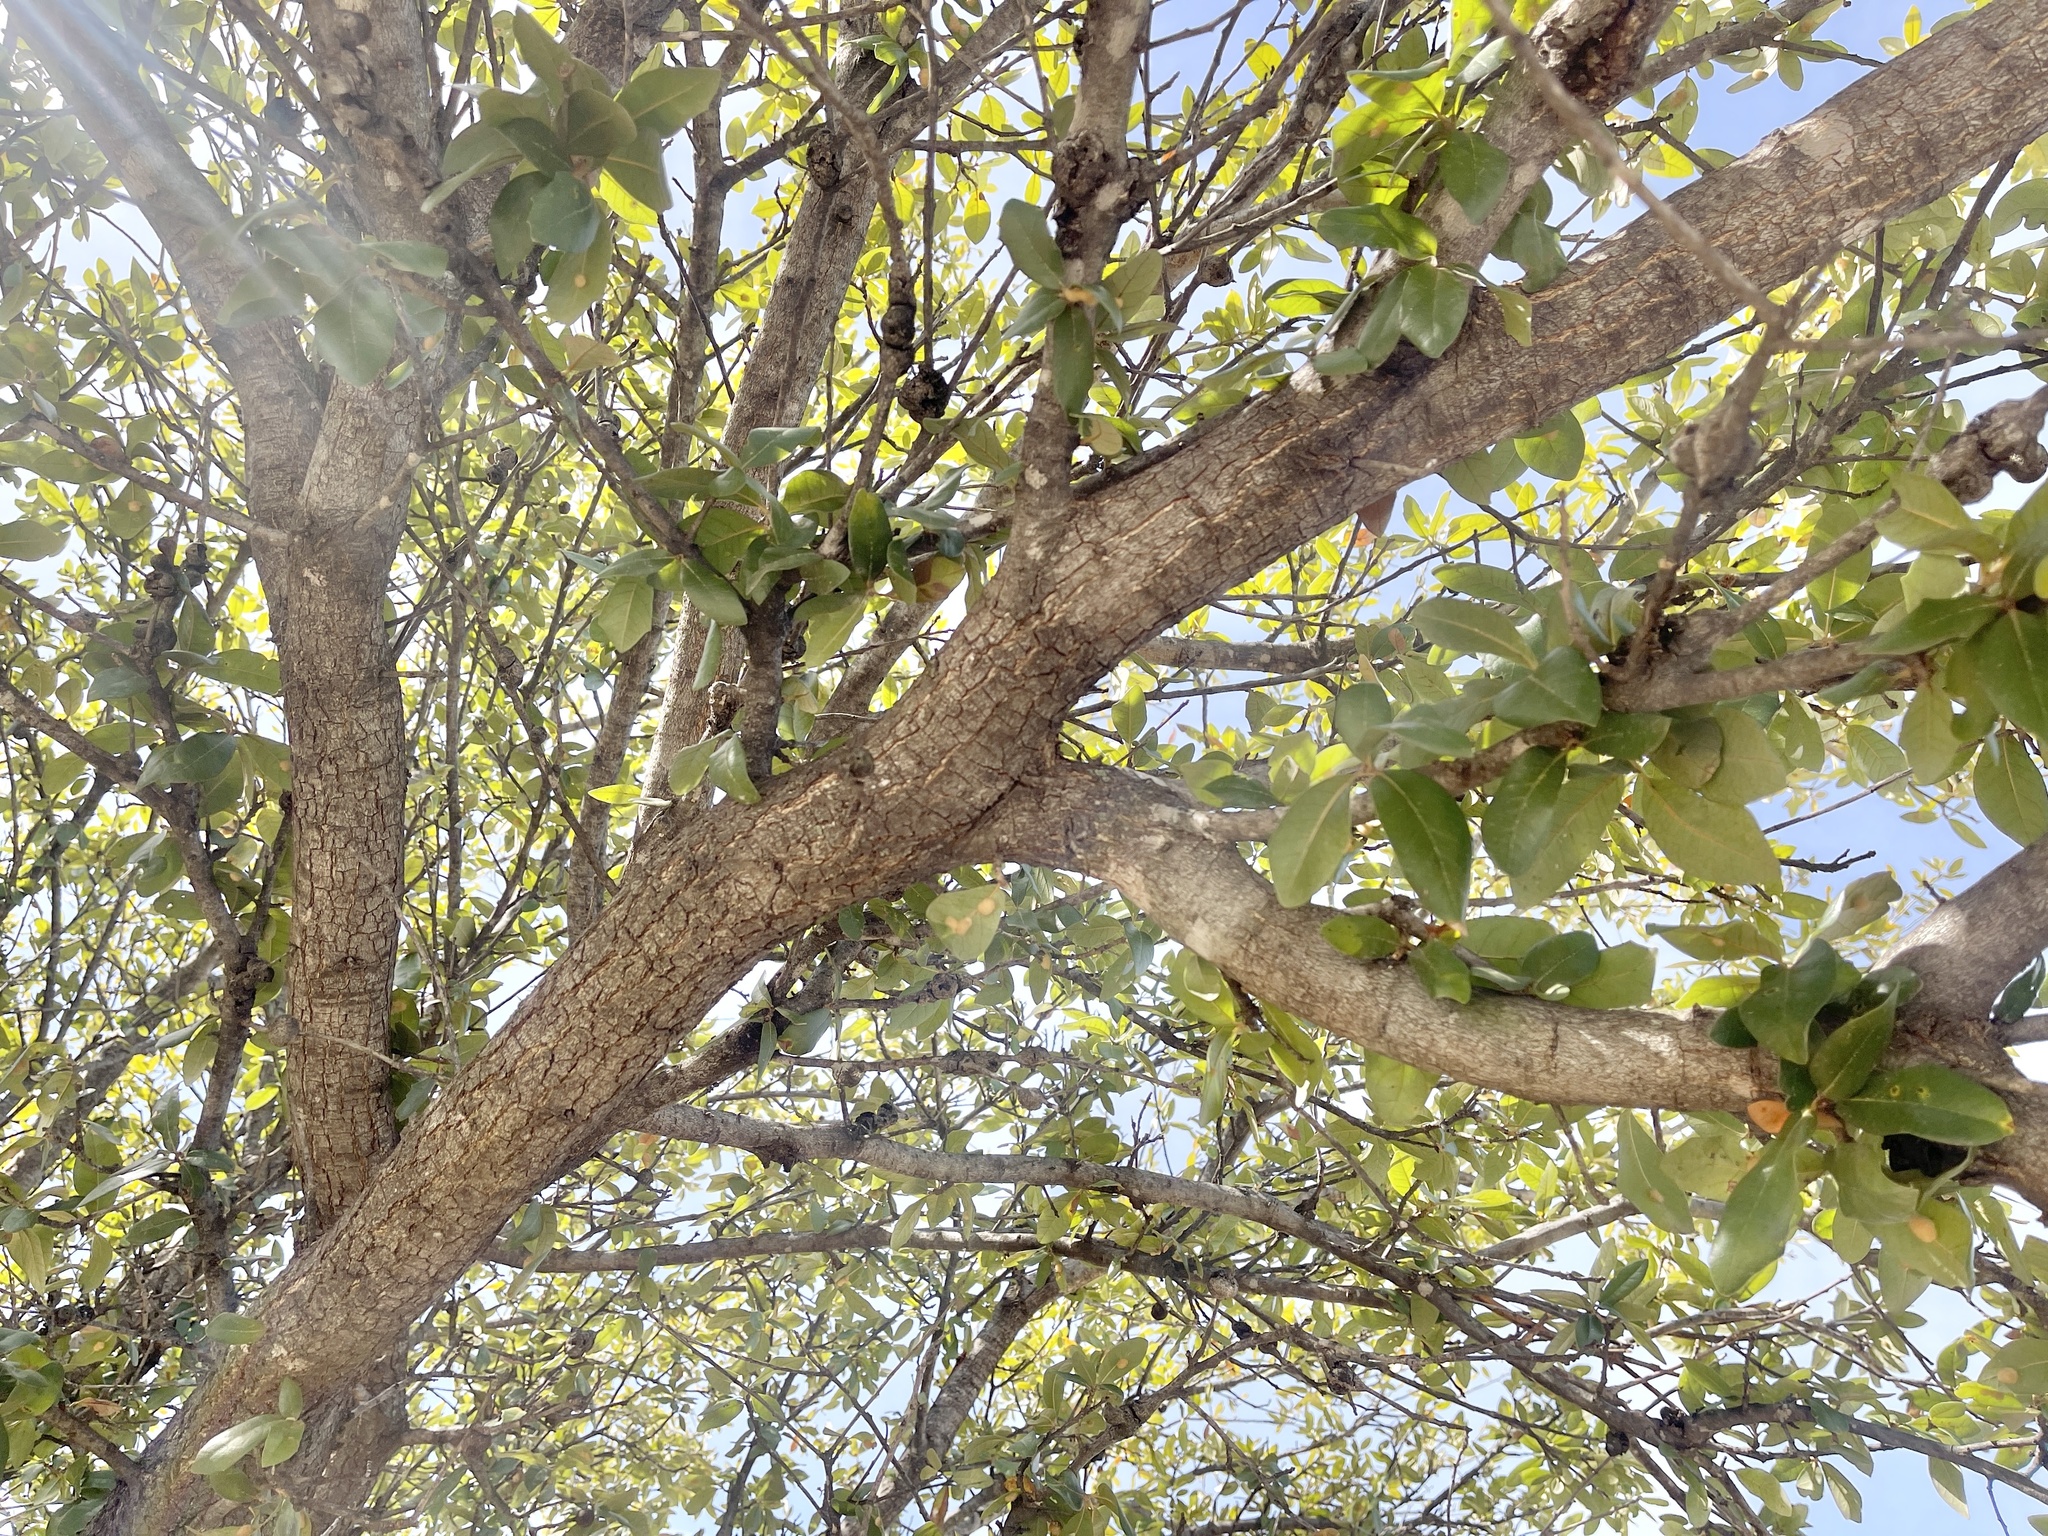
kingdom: Plantae
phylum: Tracheophyta
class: Magnoliopsida
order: Fagales
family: Fagaceae
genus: Quercus
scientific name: Quercus fusiformis
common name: Texas live oak
